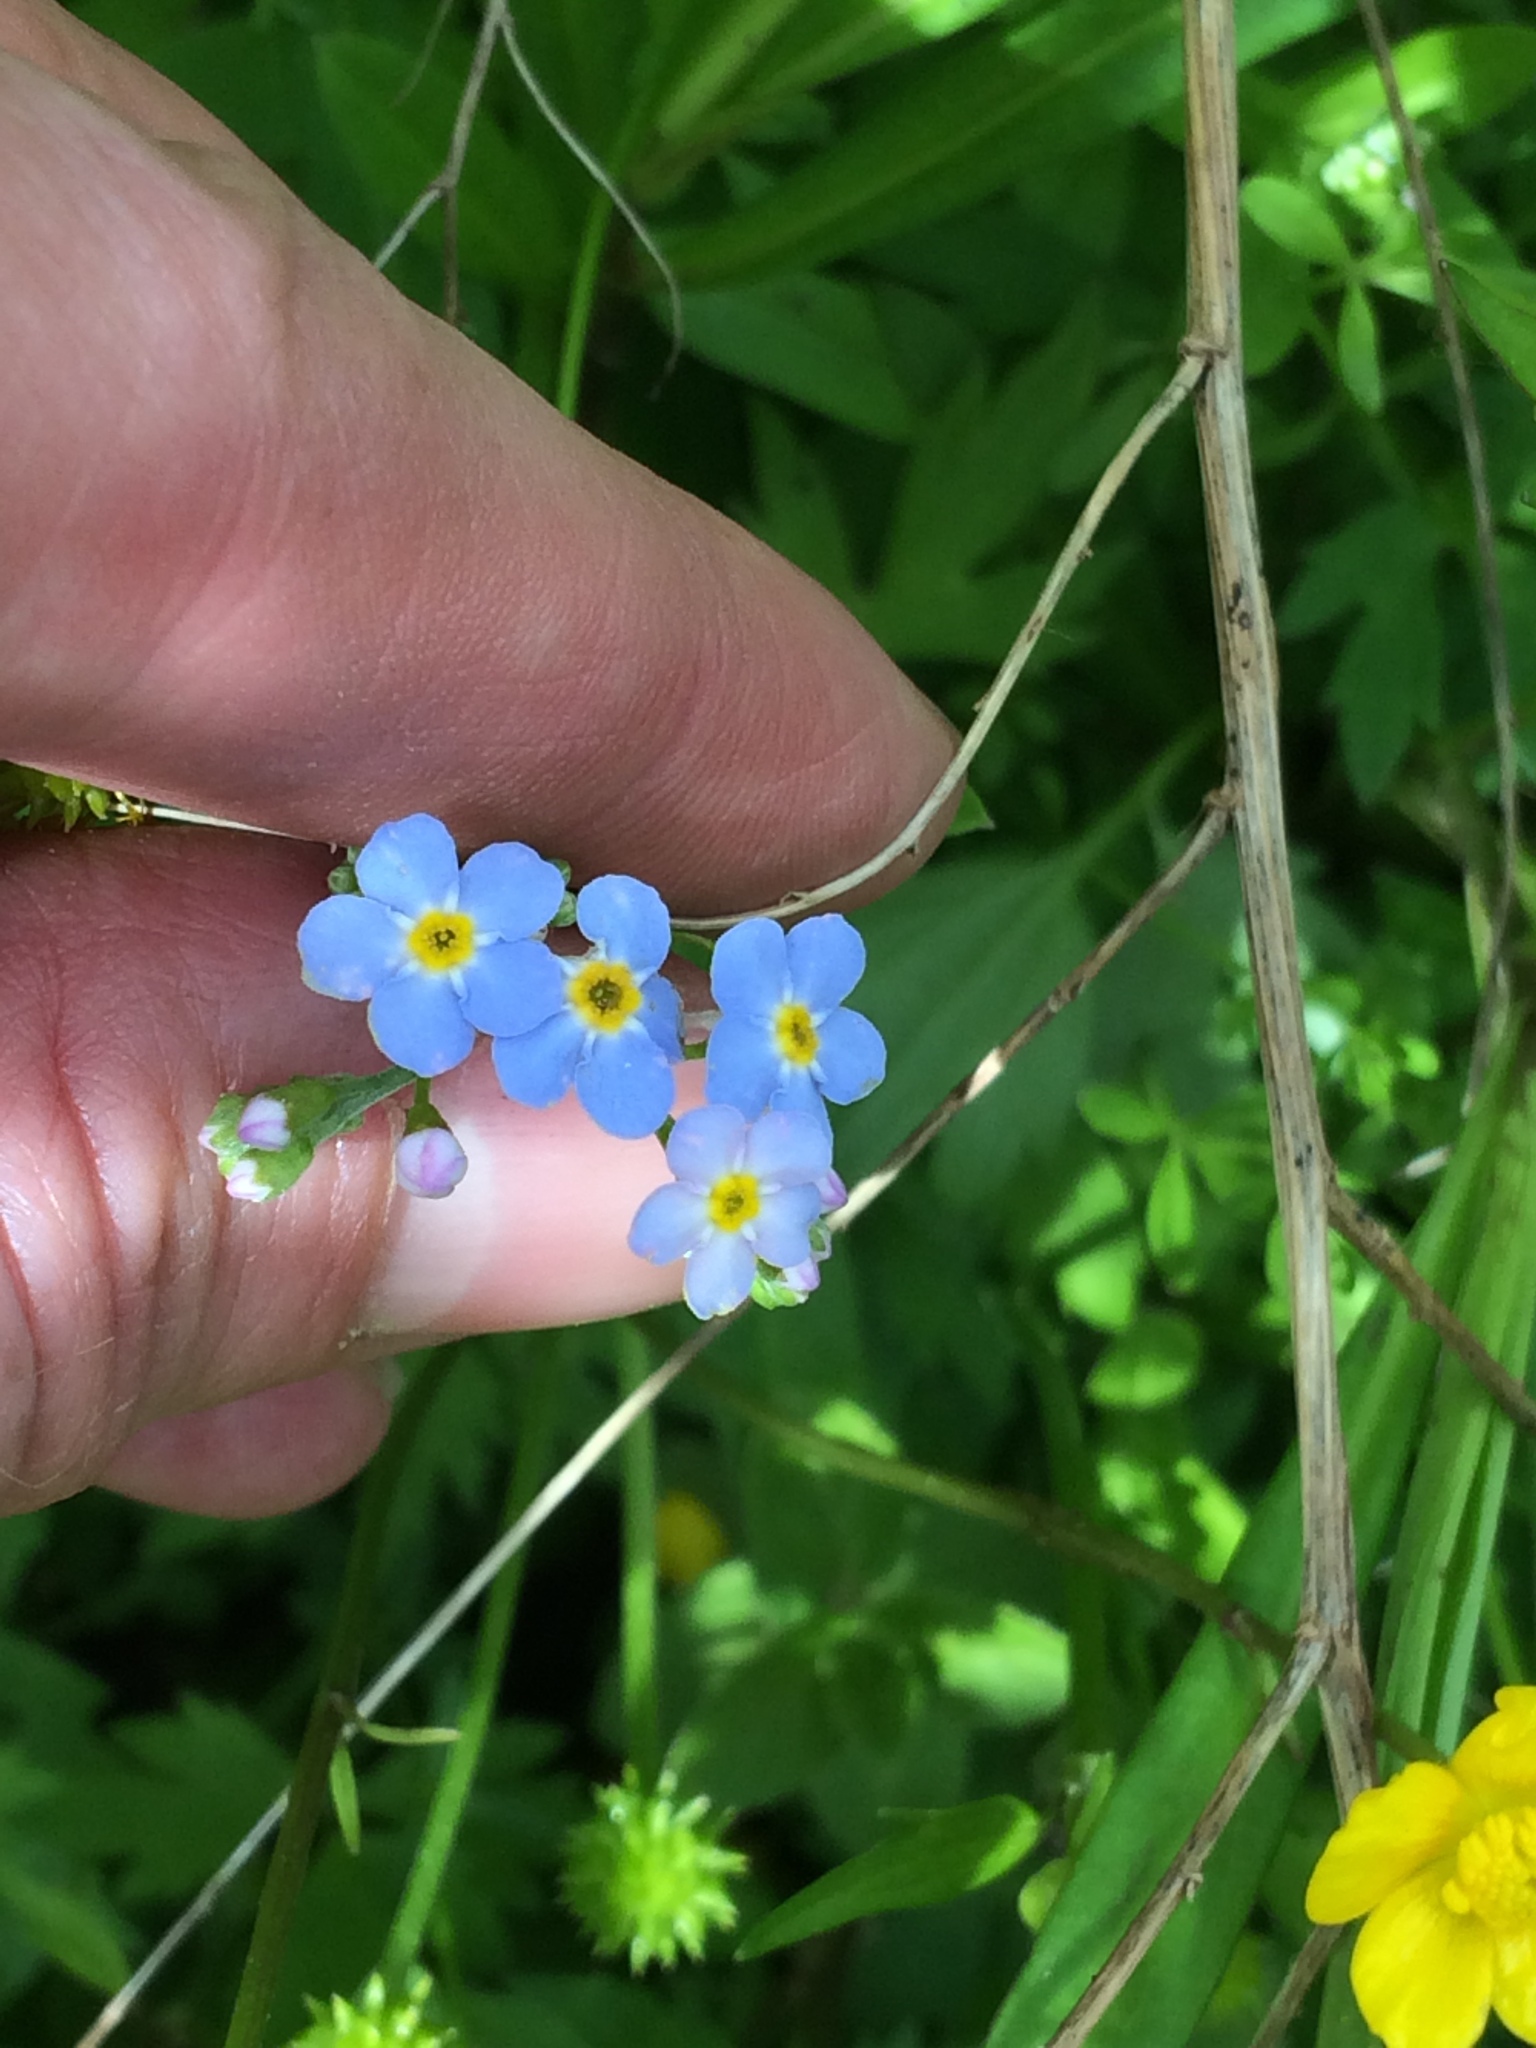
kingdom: Plantae
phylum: Tracheophyta
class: Magnoliopsida
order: Boraginales
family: Boraginaceae
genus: Myosotis
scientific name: Myosotis scorpioides
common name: Water forget-me-not
